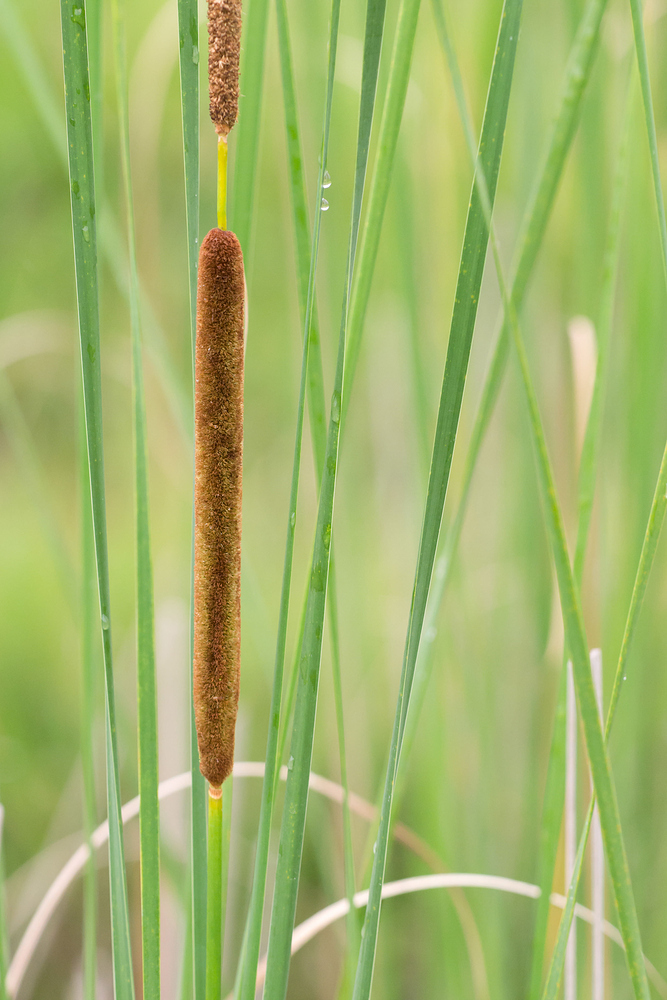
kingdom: Plantae
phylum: Tracheophyta
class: Liliopsida
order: Poales
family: Typhaceae
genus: Typha
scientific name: Typha angustifolia
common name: Lesser bulrush
